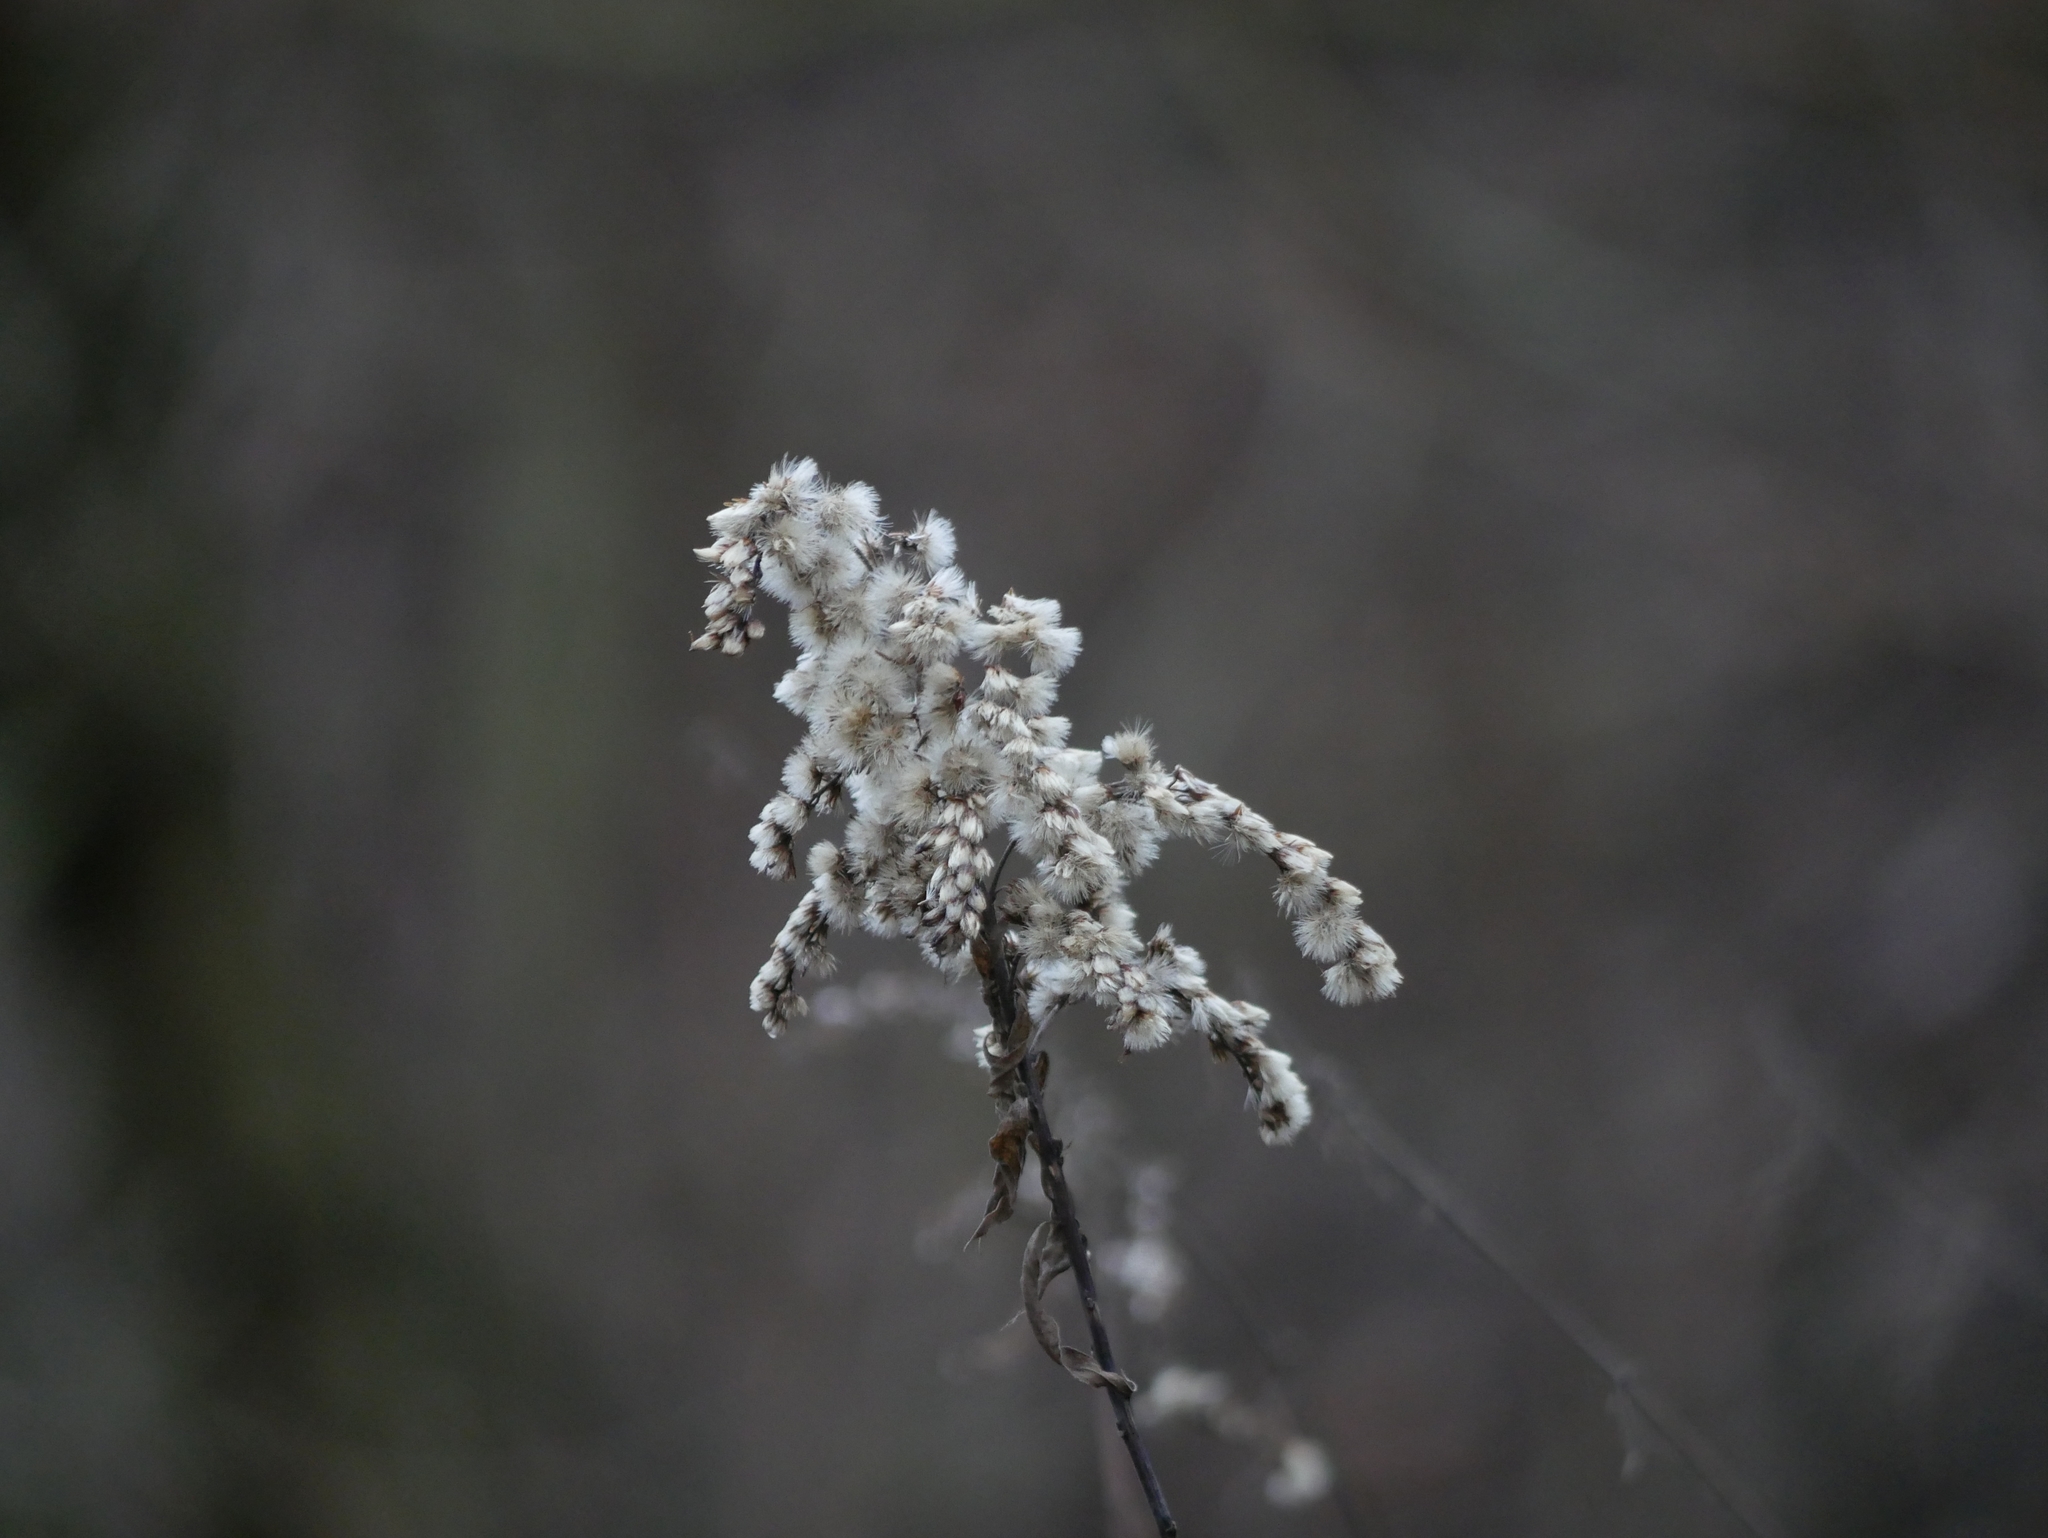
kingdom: Plantae
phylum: Tracheophyta
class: Magnoliopsida
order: Asterales
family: Asteraceae
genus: Solidago
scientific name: Solidago canadensis
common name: Canada goldenrod
